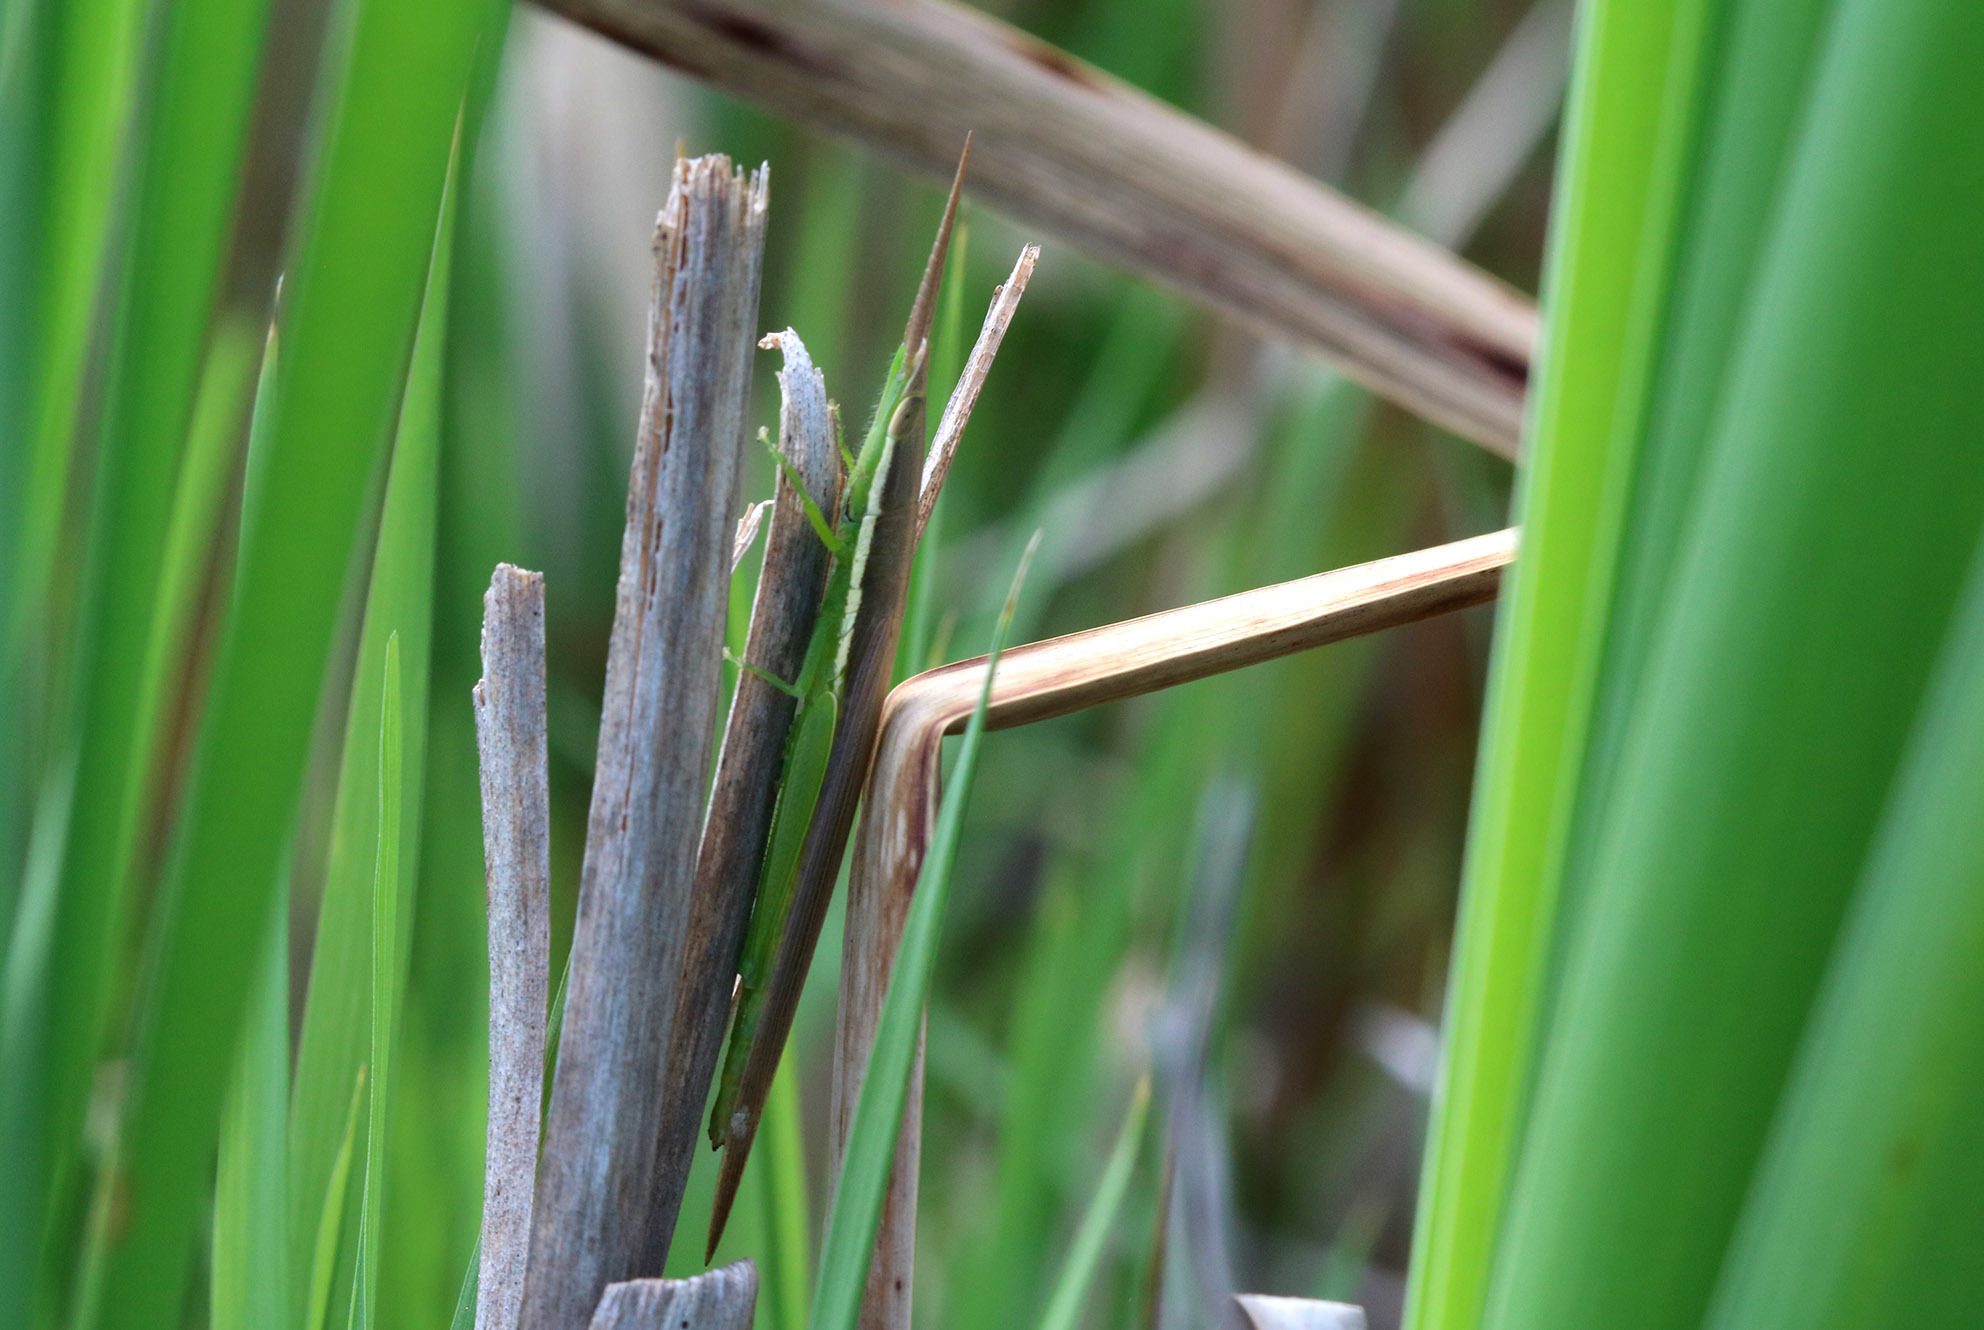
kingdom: Animalia
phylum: Arthropoda
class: Insecta
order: Orthoptera
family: Acrididae
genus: Leptysma
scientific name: Leptysma argentina
